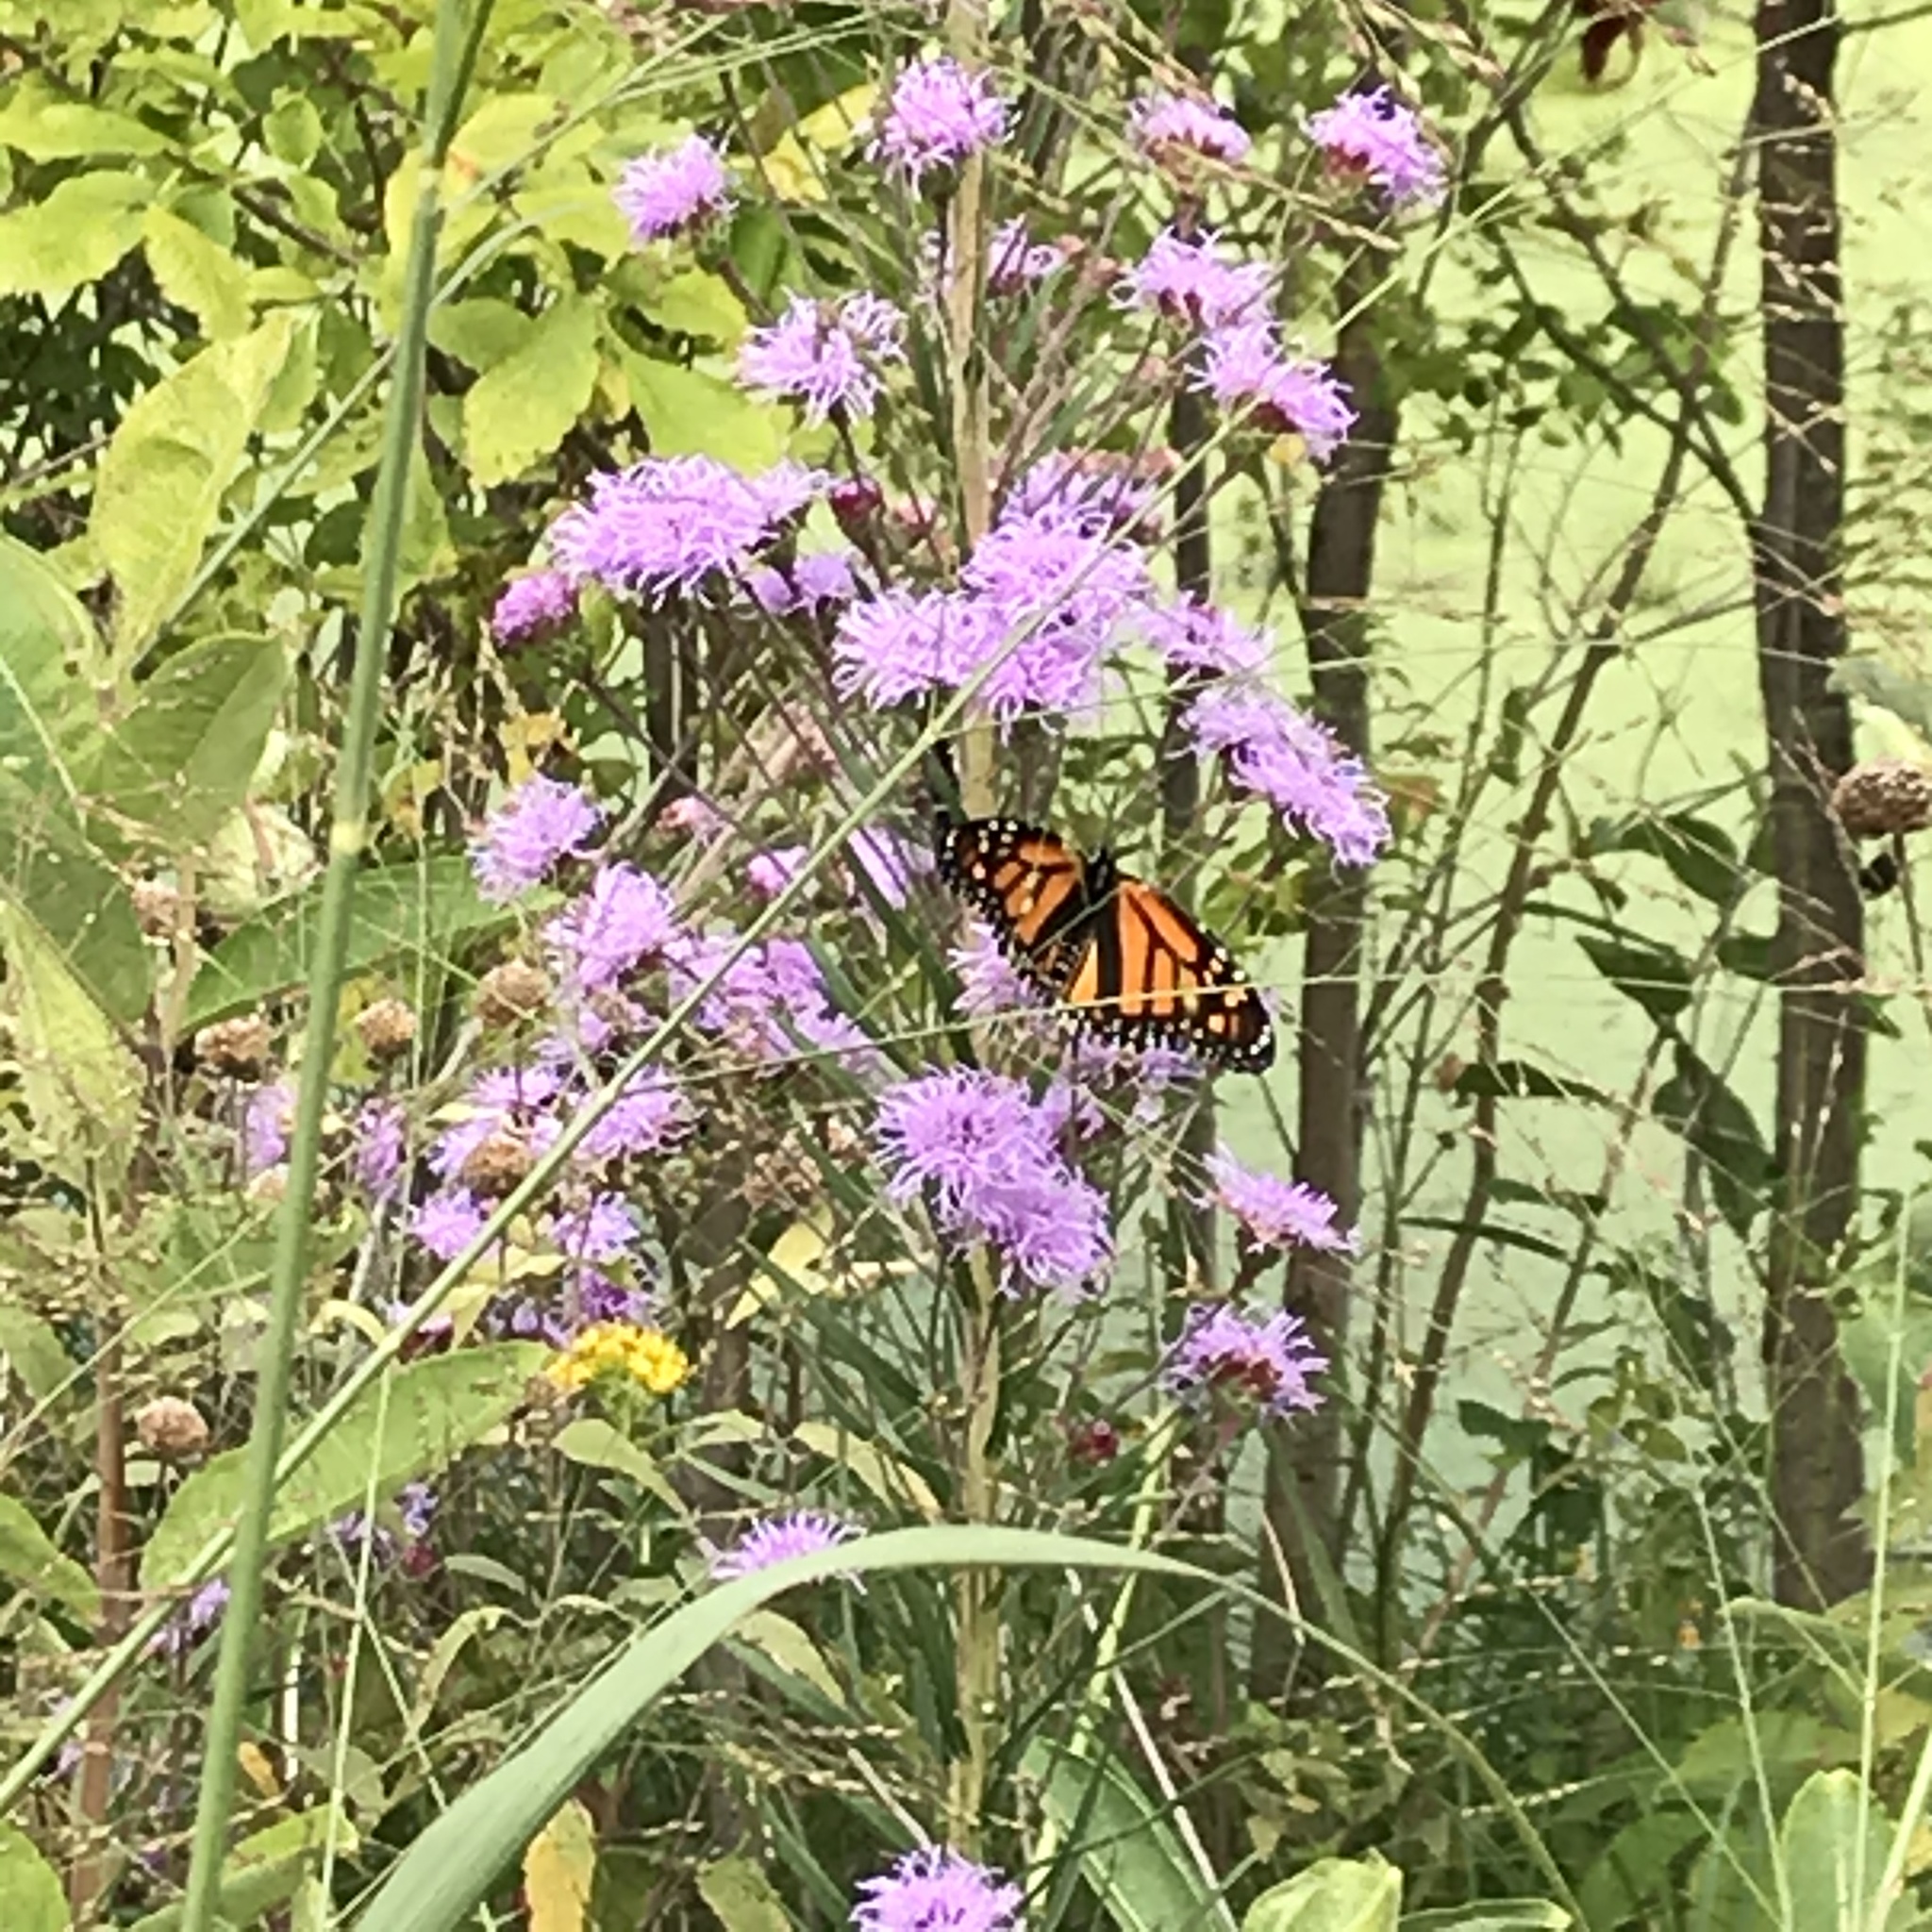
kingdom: Animalia
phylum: Arthropoda
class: Insecta
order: Lepidoptera
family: Nymphalidae
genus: Danaus
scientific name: Danaus plexippus
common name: Monarch
